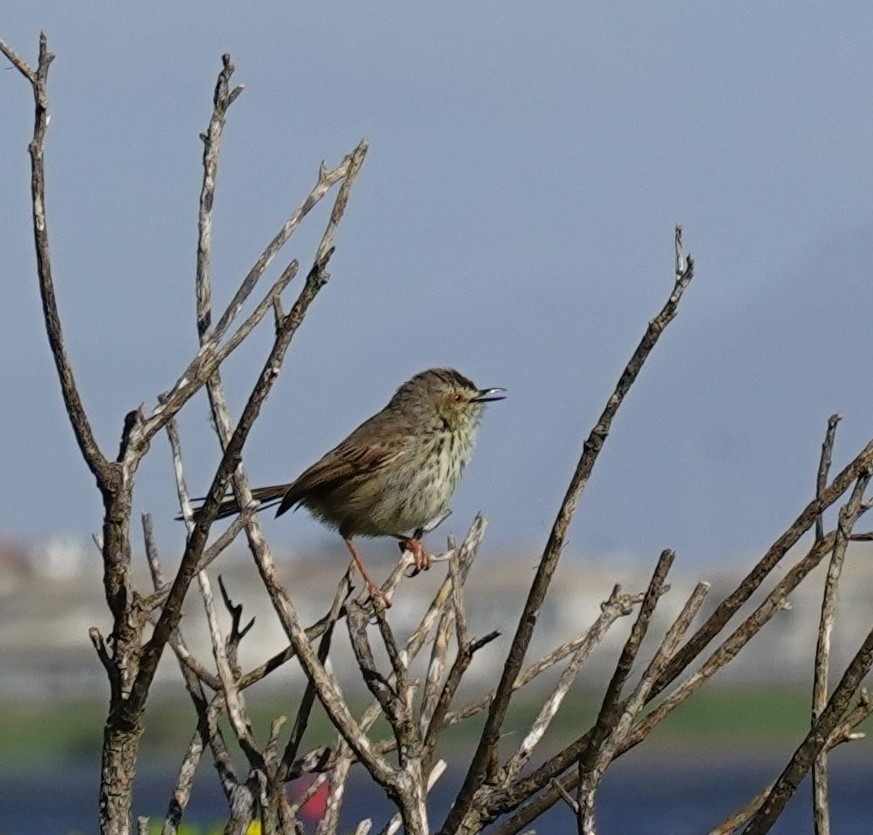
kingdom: Animalia
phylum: Chordata
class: Aves
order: Passeriformes
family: Cisticolidae
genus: Prinia
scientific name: Prinia maculosa
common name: Karoo prinia
